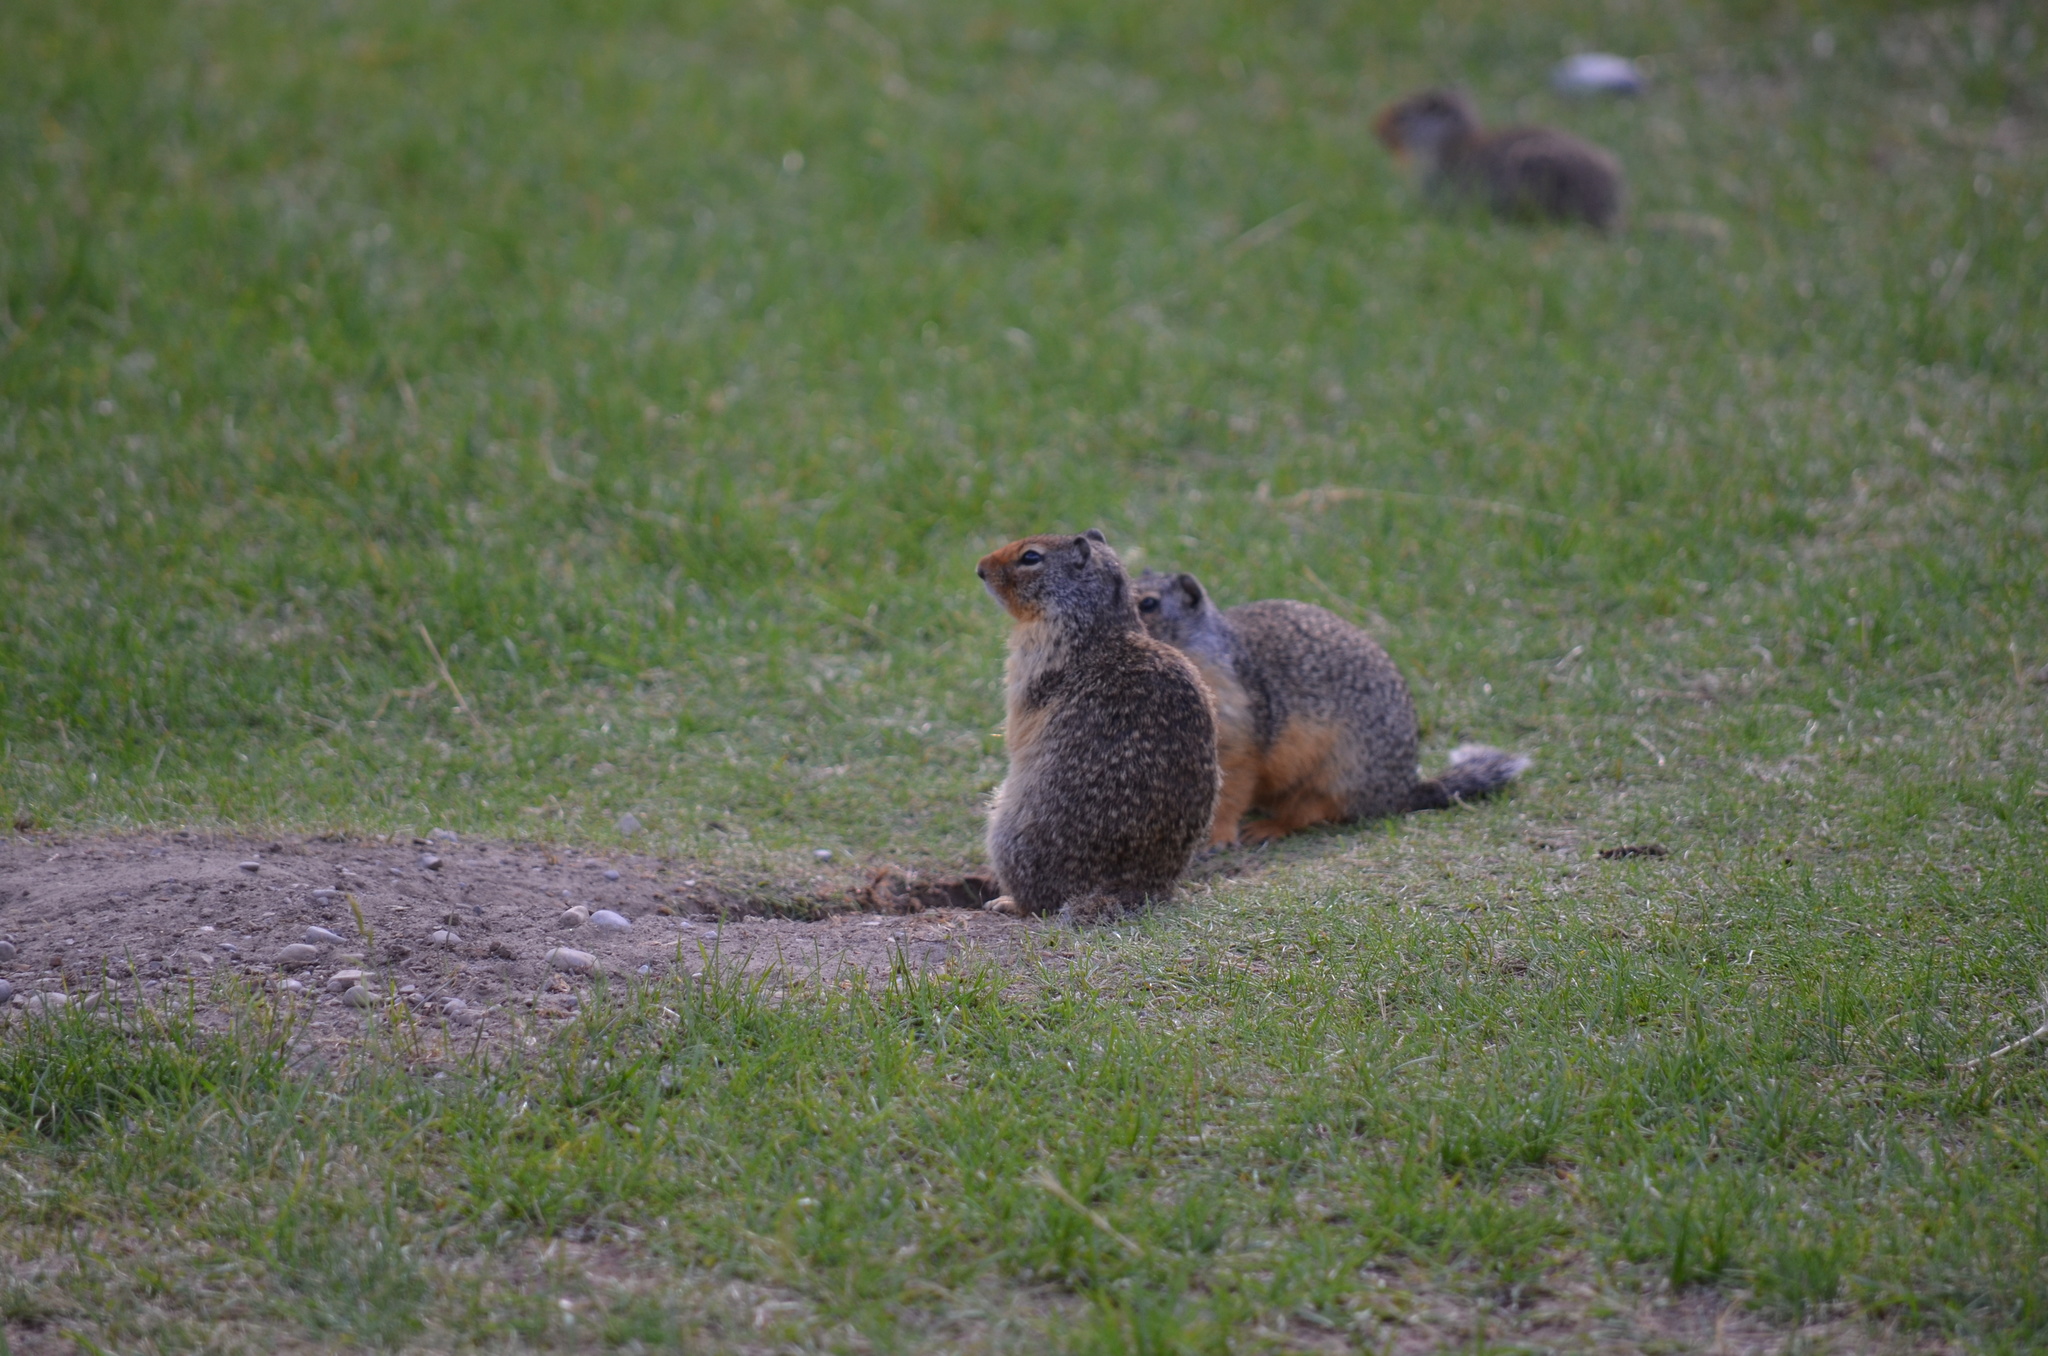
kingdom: Animalia
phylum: Chordata
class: Mammalia
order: Rodentia
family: Sciuridae
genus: Urocitellus
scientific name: Urocitellus columbianus
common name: Columbian ground squirrel
